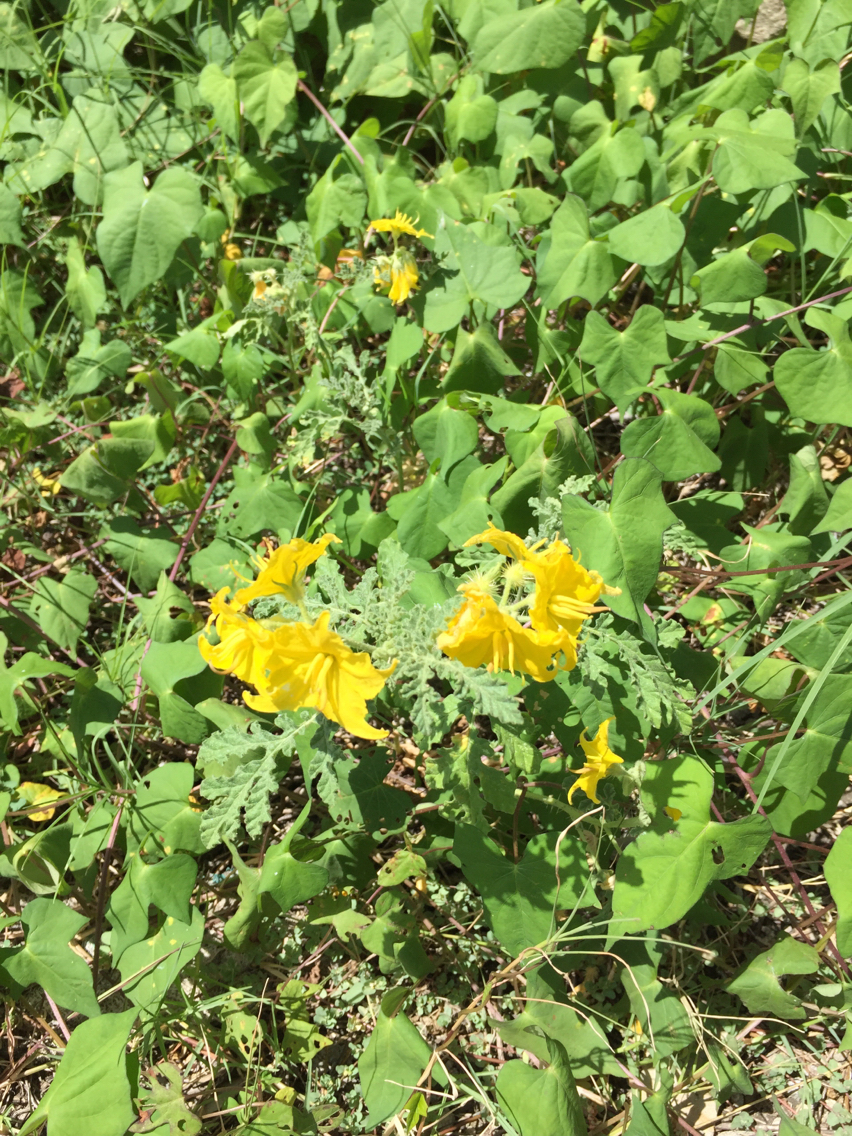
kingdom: Plantae
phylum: Tracheophyta
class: Magnoliopsida
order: Solanales
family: Solanaceae
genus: Solanum
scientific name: Solanum angustifolium
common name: Buffalobur nightshade
